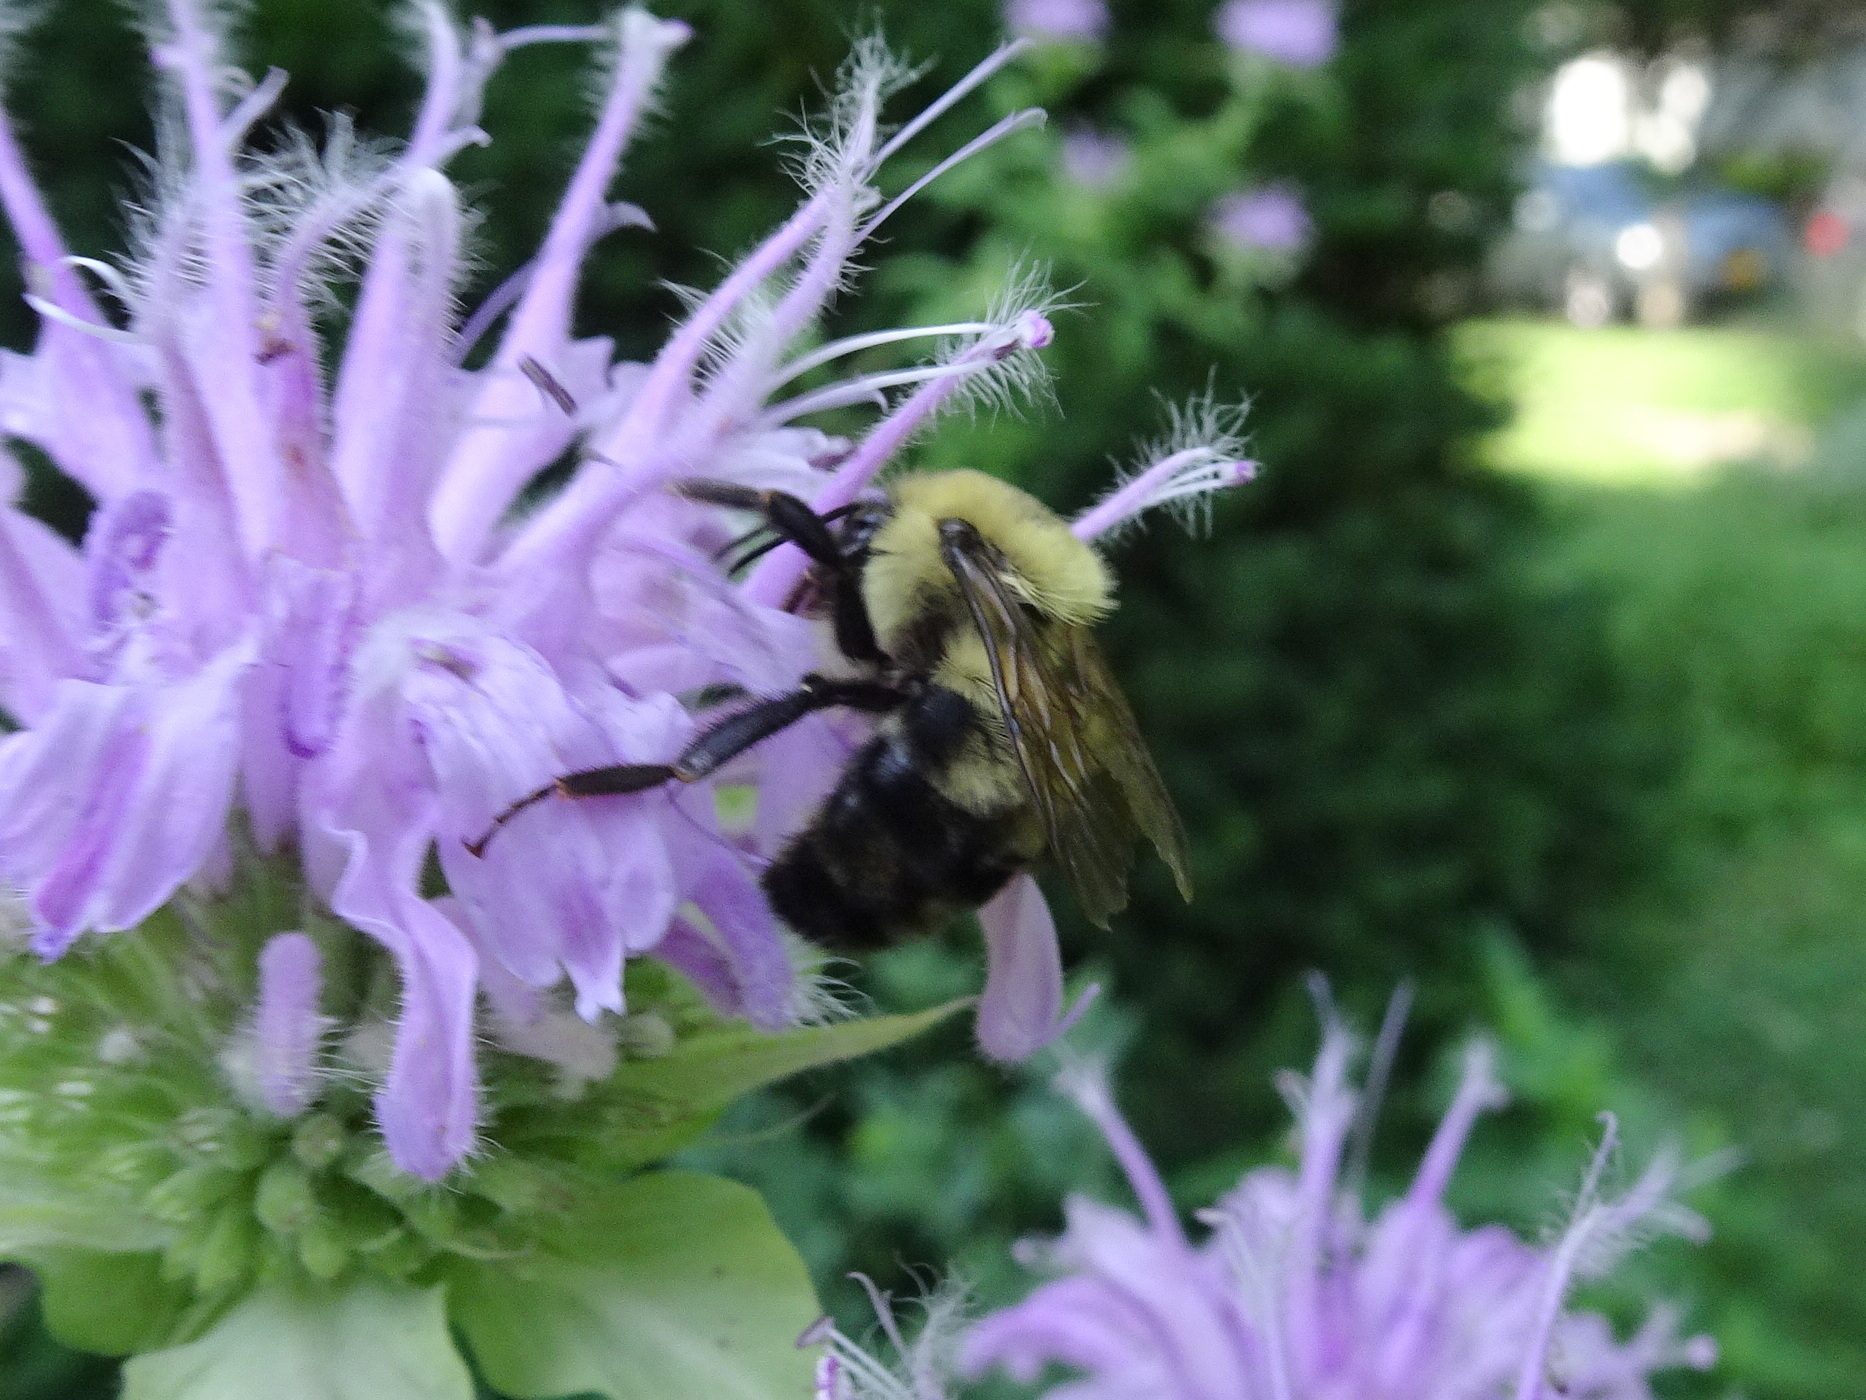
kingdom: Animalia
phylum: Arthropoda
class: Insecta
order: Hymenoptera
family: Apidae
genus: Bombus
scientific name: Bombus bimaculatus
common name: Two-spotted bumble bee
